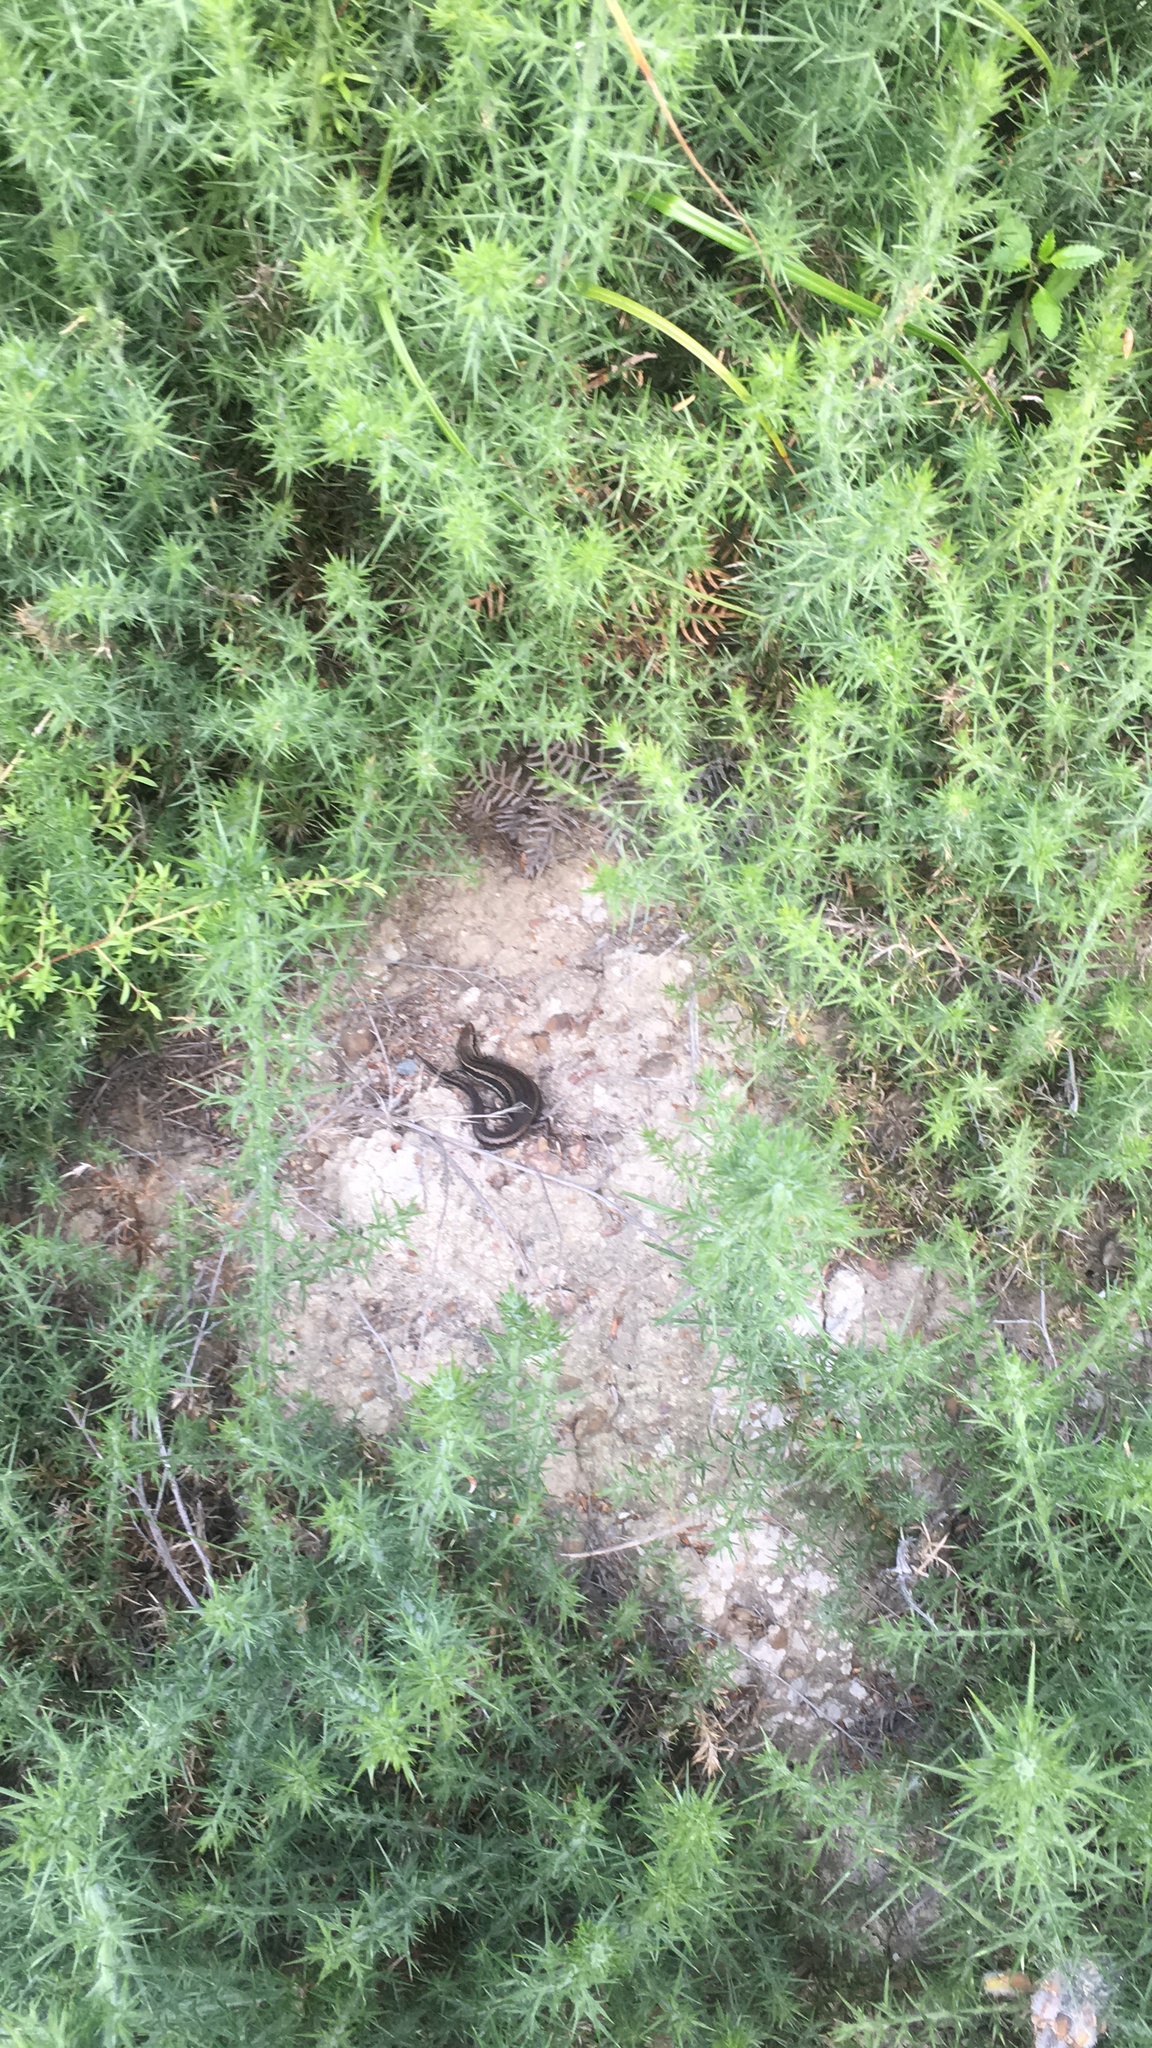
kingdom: Animalia
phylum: Chordata
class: Squamata
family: Scincidae
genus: Oligosoma
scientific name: Oligosoma polychroma
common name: Common new zealand skink
